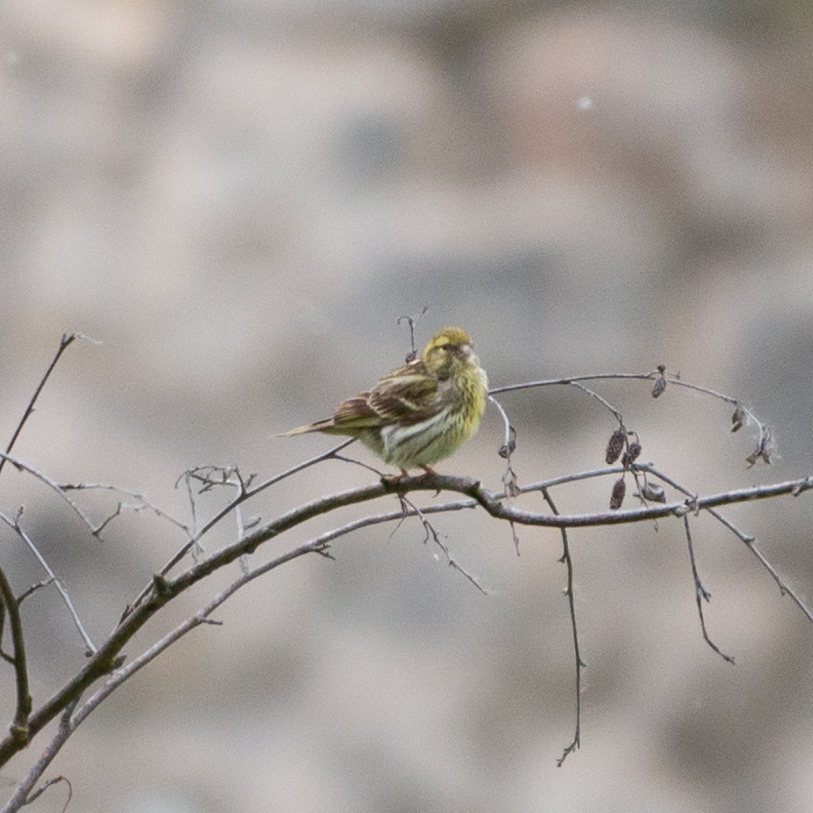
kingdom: Animalia
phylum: Chordata
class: Aves
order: Passeriformes
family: Fringillidae
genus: Serinus
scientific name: Serinus serinus
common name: European serin
